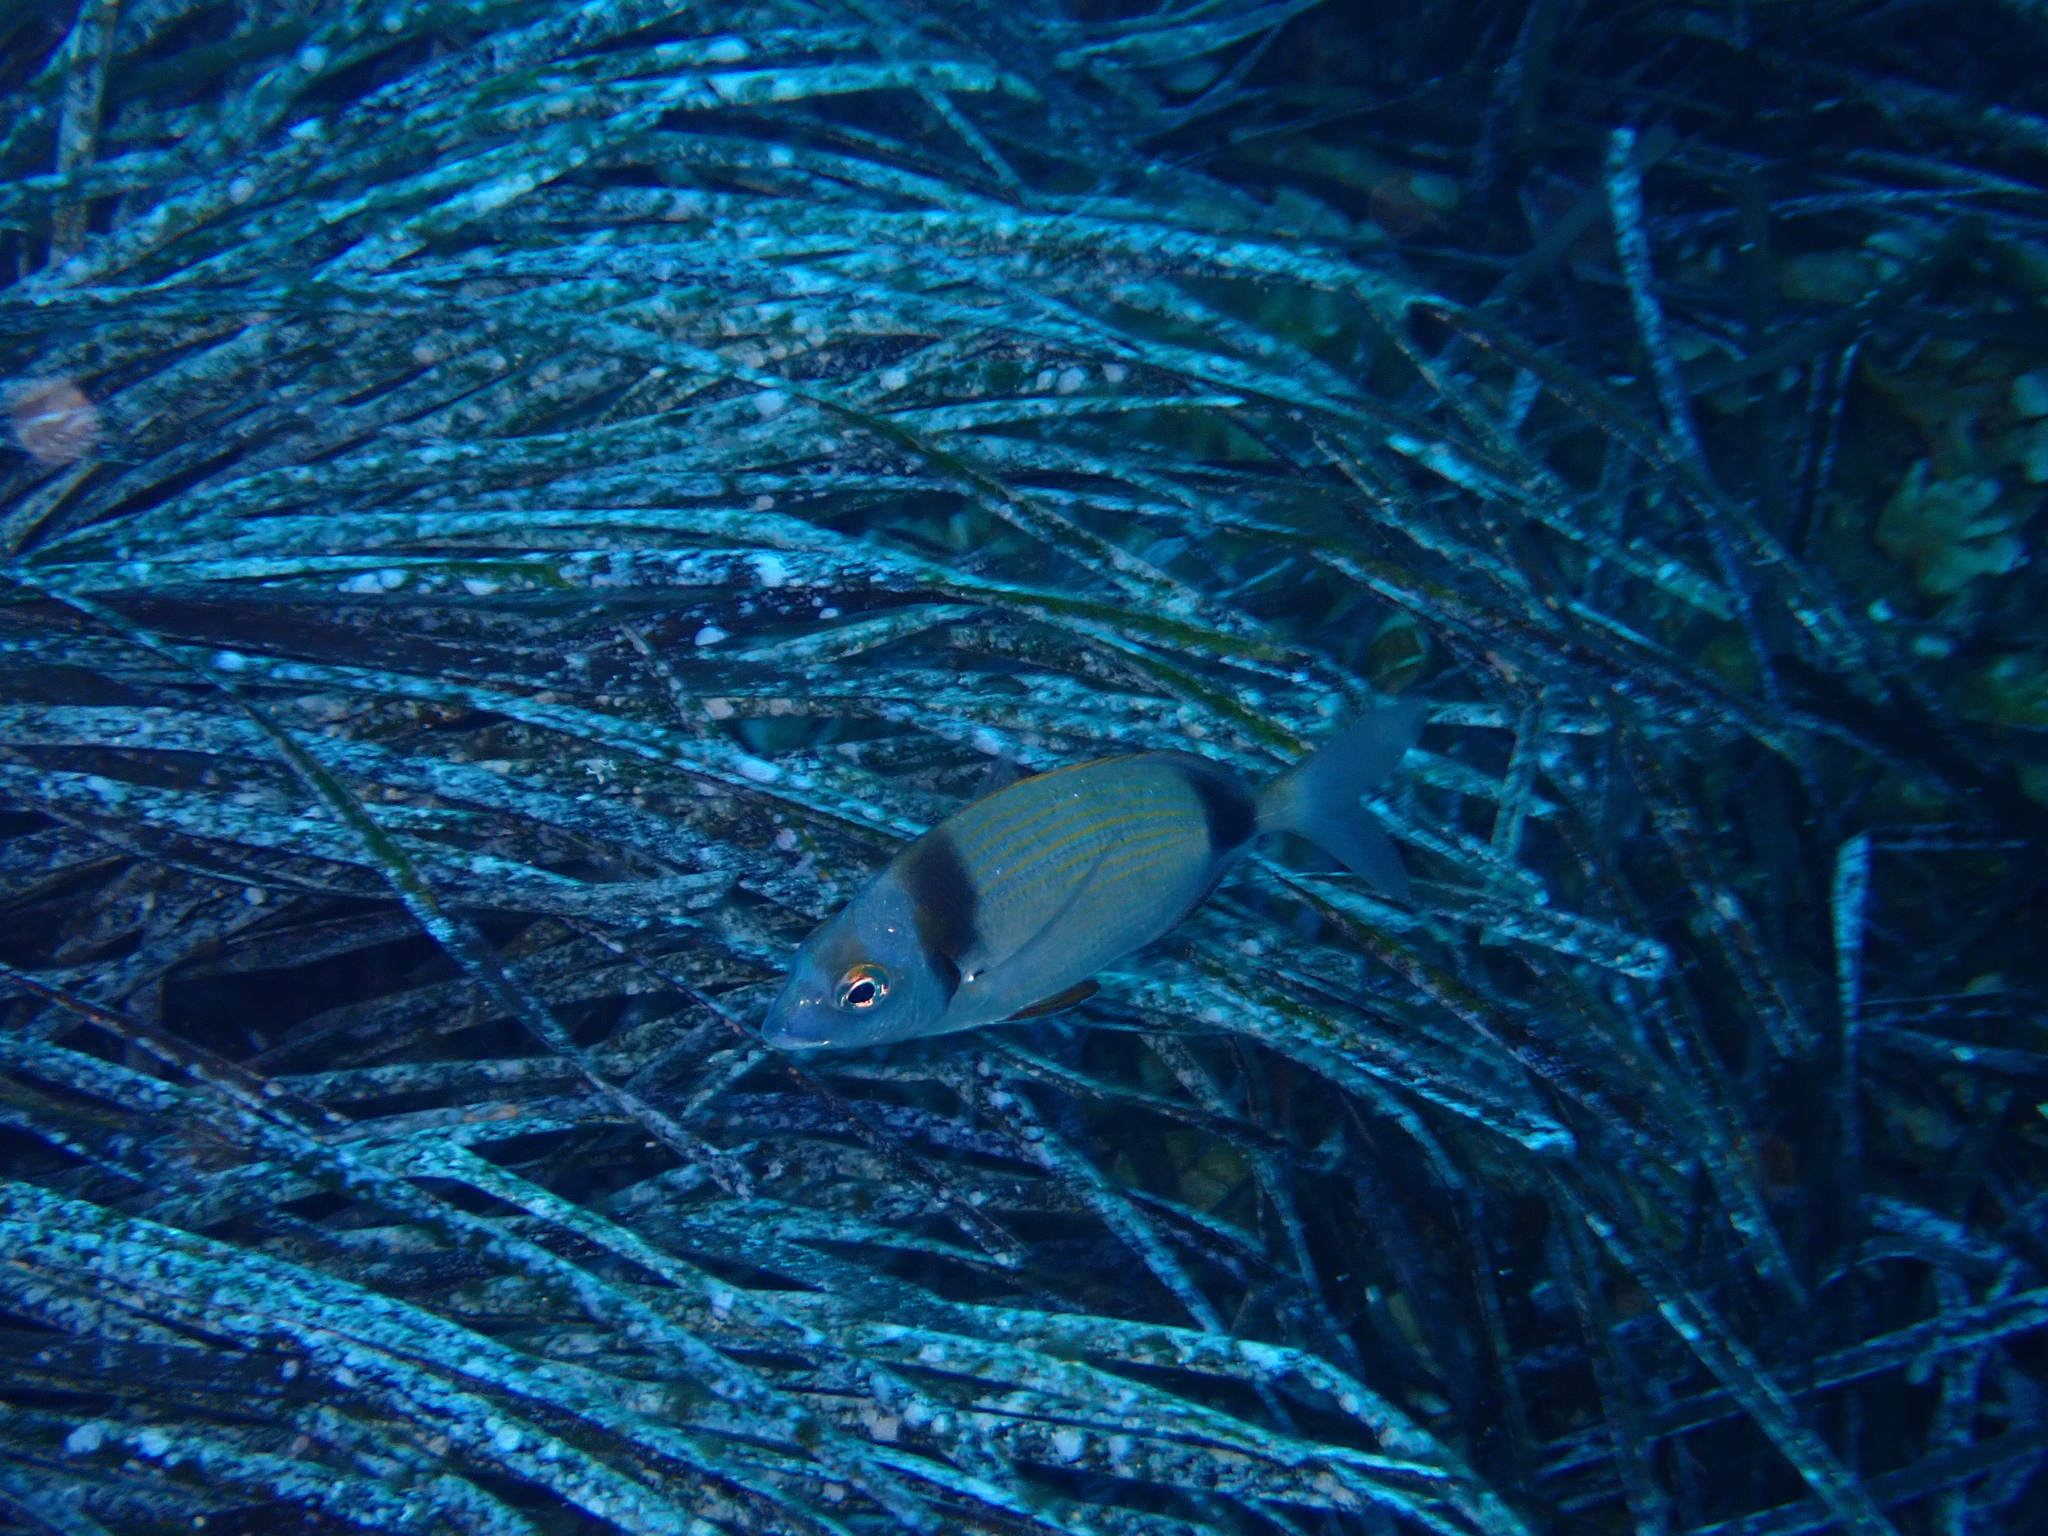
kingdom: Animalia
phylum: Chordata
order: Perciformes
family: Sparidae
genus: Diplodus
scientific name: Diplodus vulgaris
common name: Common two-banded seabream
